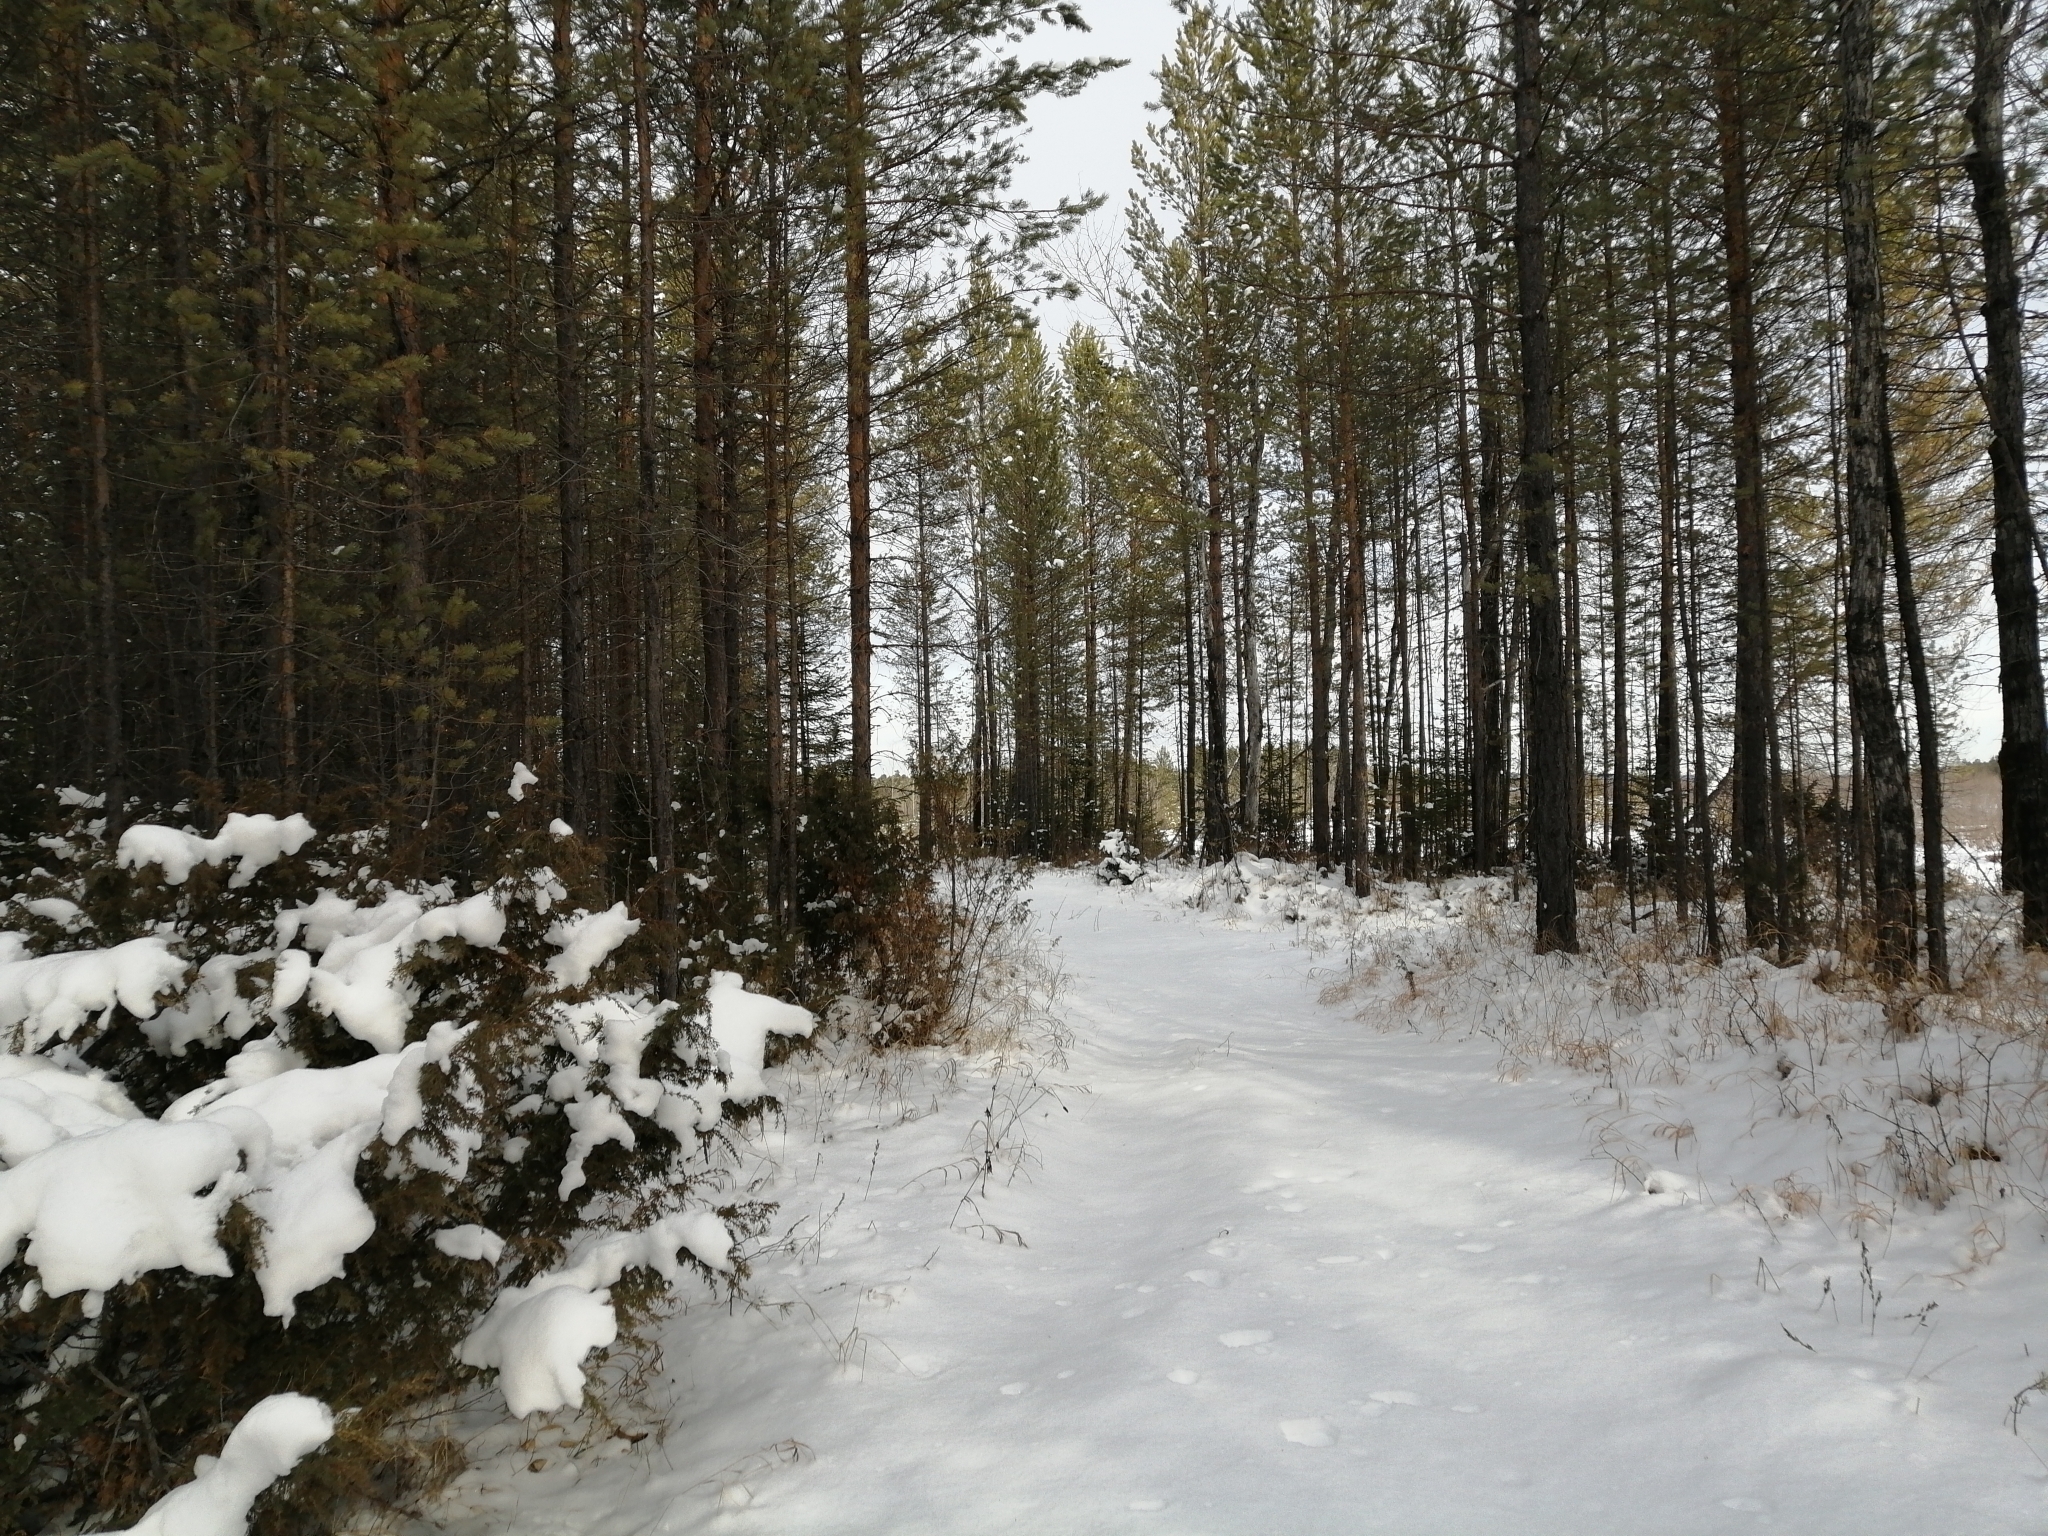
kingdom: Plantae
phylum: Tracheophyta
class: Pinopsida
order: Pinales
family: Cupressaceae
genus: Juniperus
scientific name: Juniperus communis
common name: Common juniper
